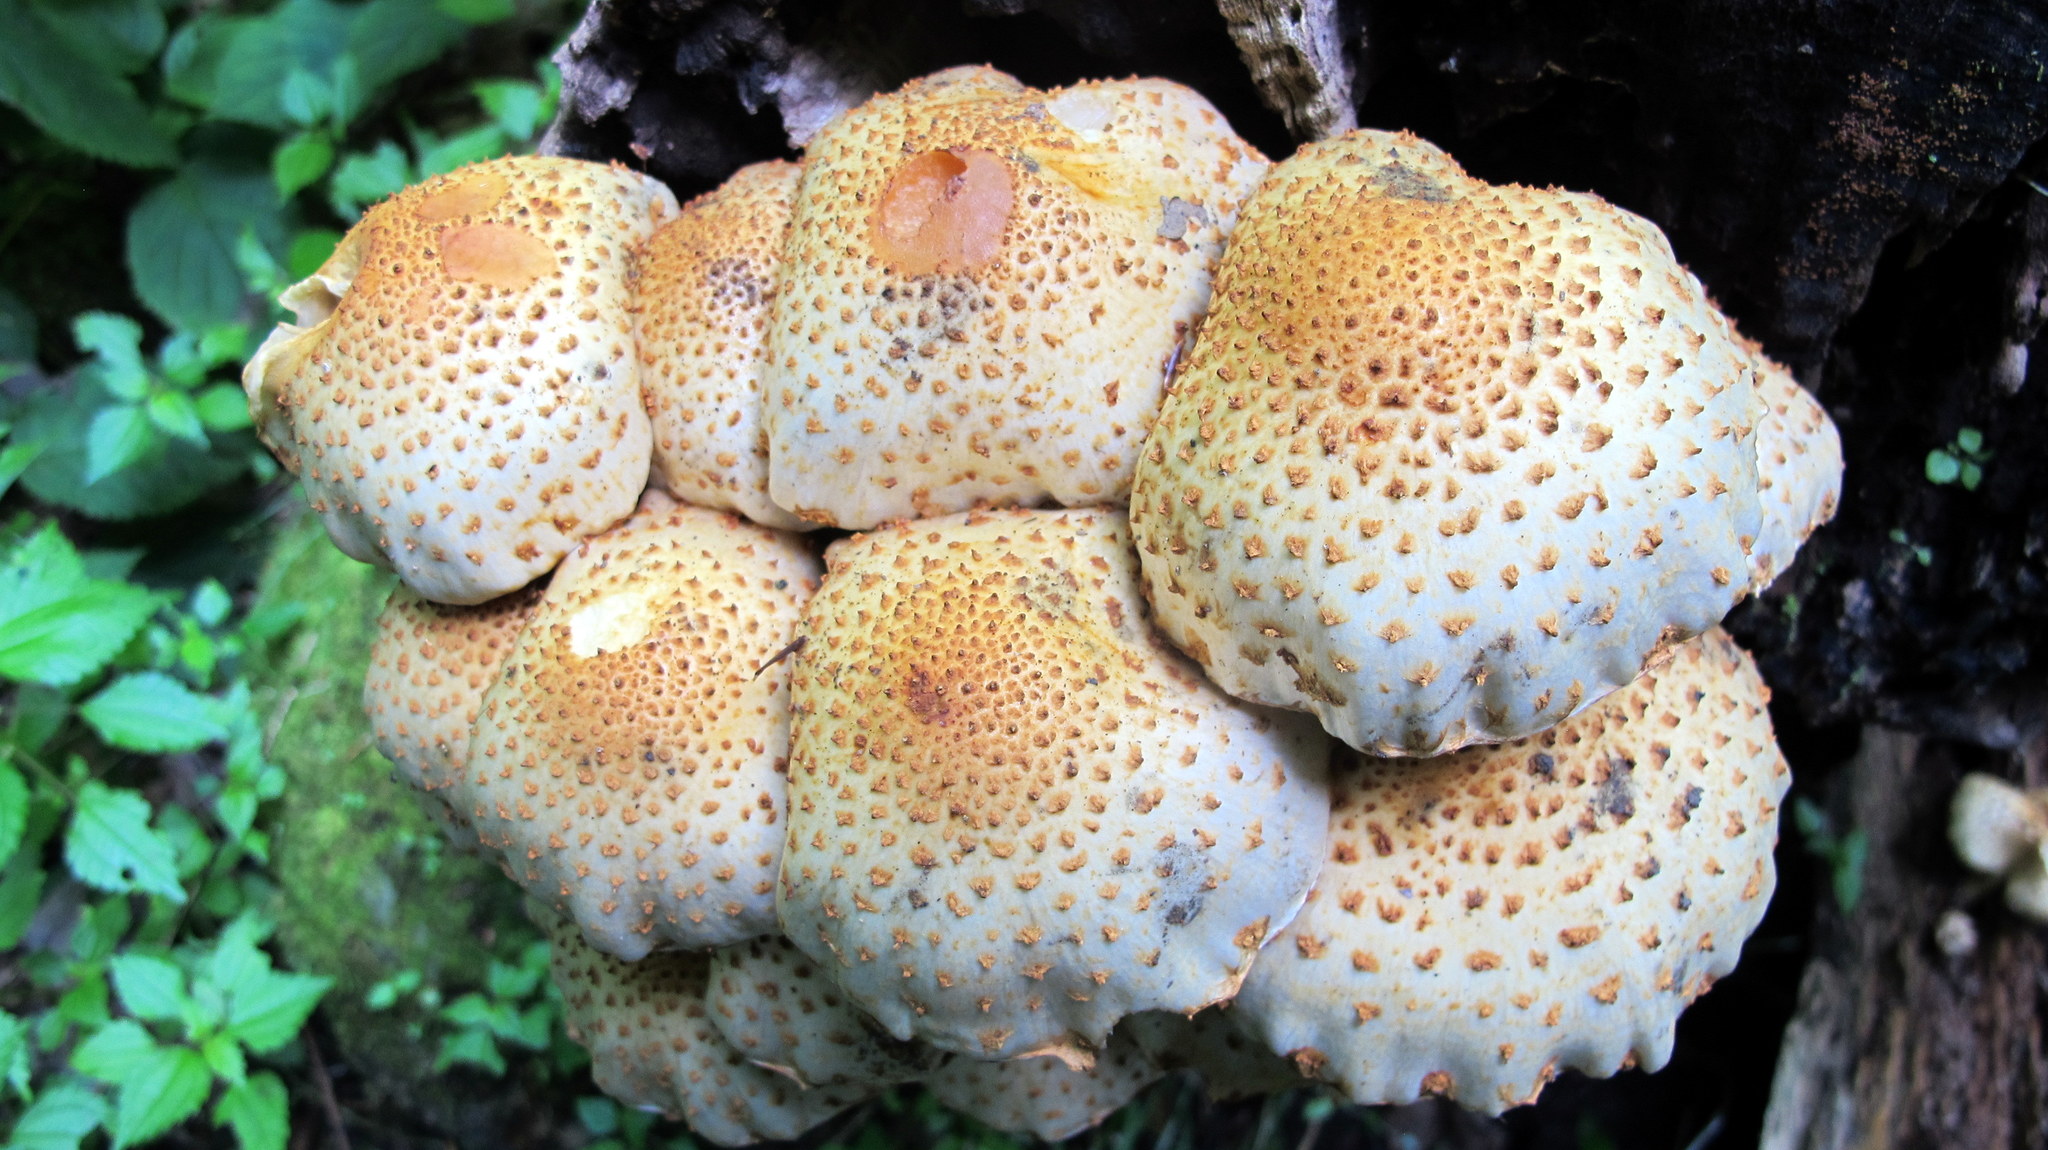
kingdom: Fungi
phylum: Basidiomycota
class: Agaricomycetes
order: Agaricales
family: Strophariaceae
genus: Pholiota
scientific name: Pholiota squarrosoides
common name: Sharp-scaly pholiota
